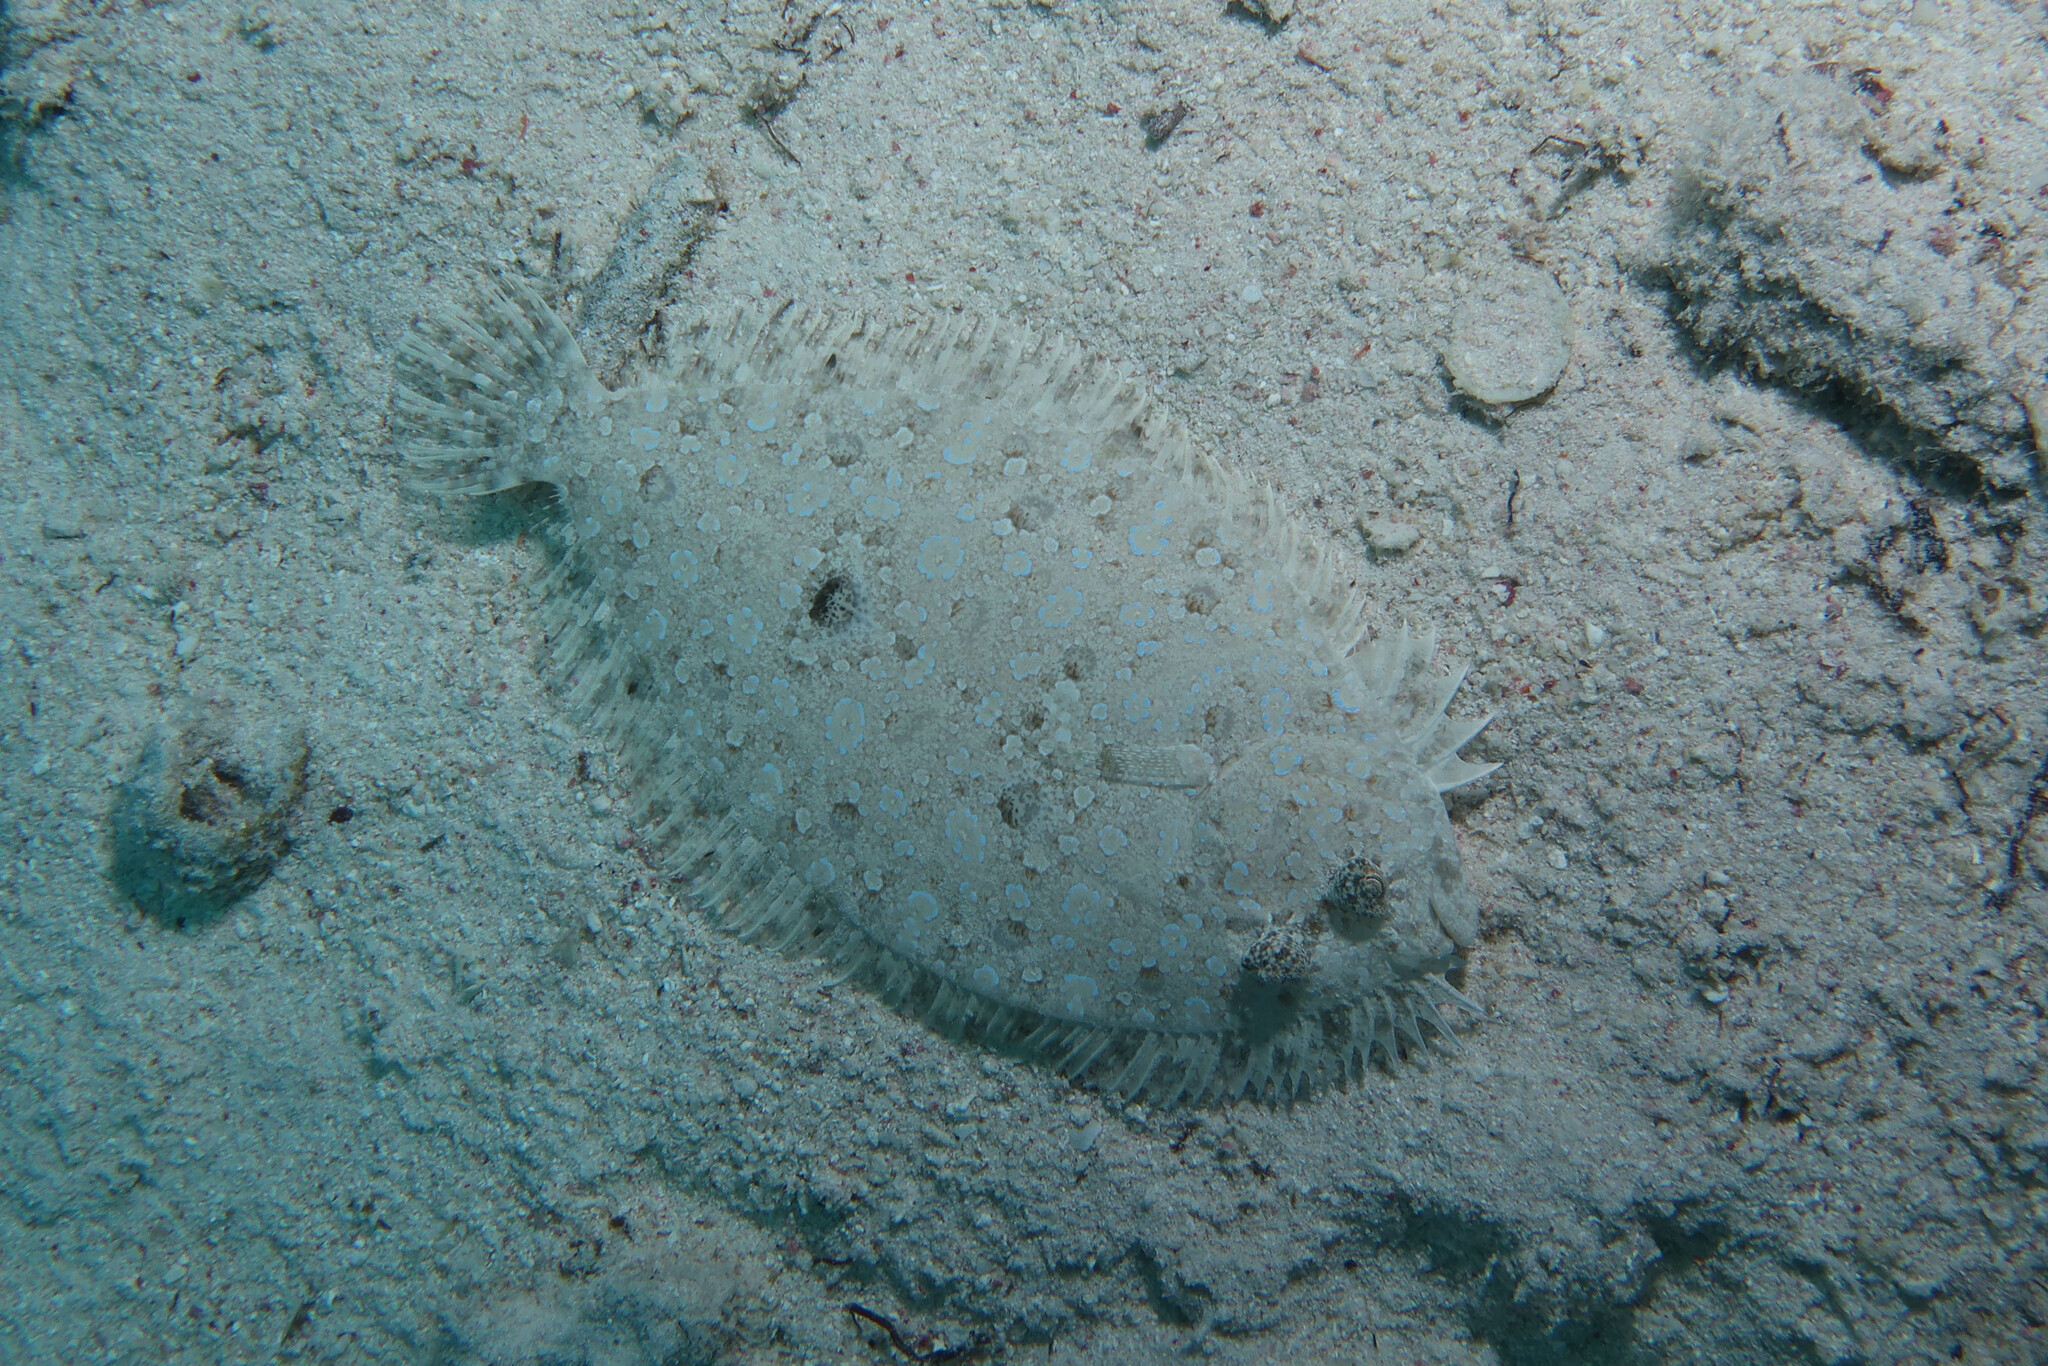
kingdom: Animalia
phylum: Chordata
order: Pleuronectiformes
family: Bothidae
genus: Bothus
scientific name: Bothus pantherinus
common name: Leopard flounder
